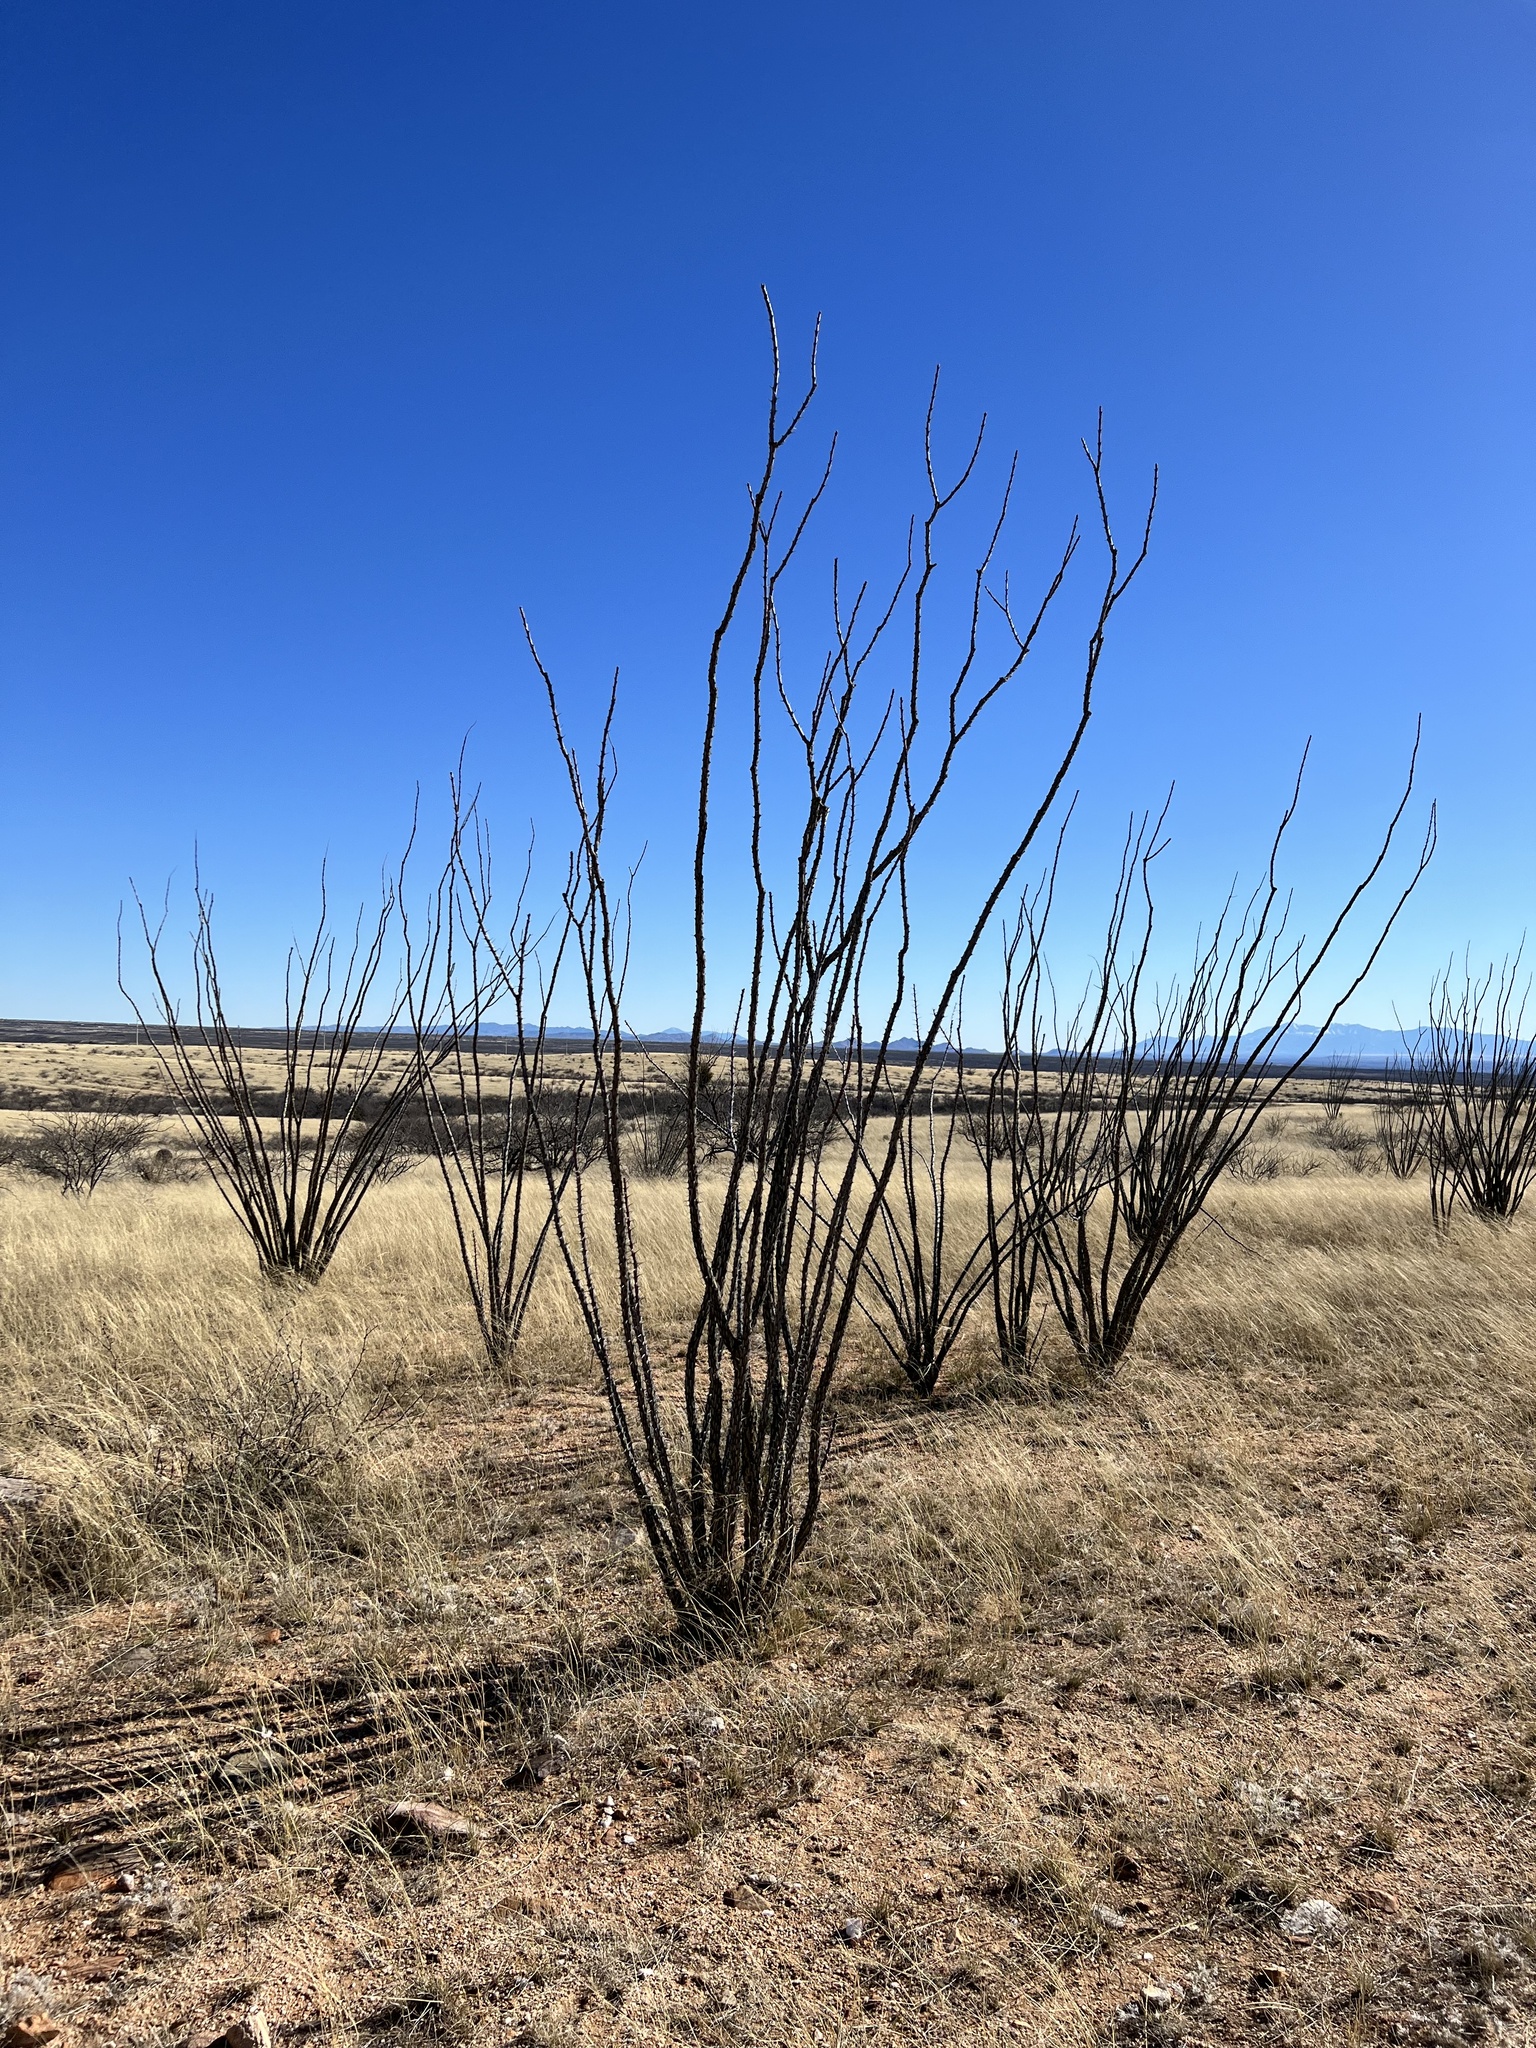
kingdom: Plantae
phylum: Tracheophyta
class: Magnoliopsida
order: Ericales
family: Fouquieriaceae
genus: Fouquieria
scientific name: Fouquieria splendens
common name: Vine-cactus
